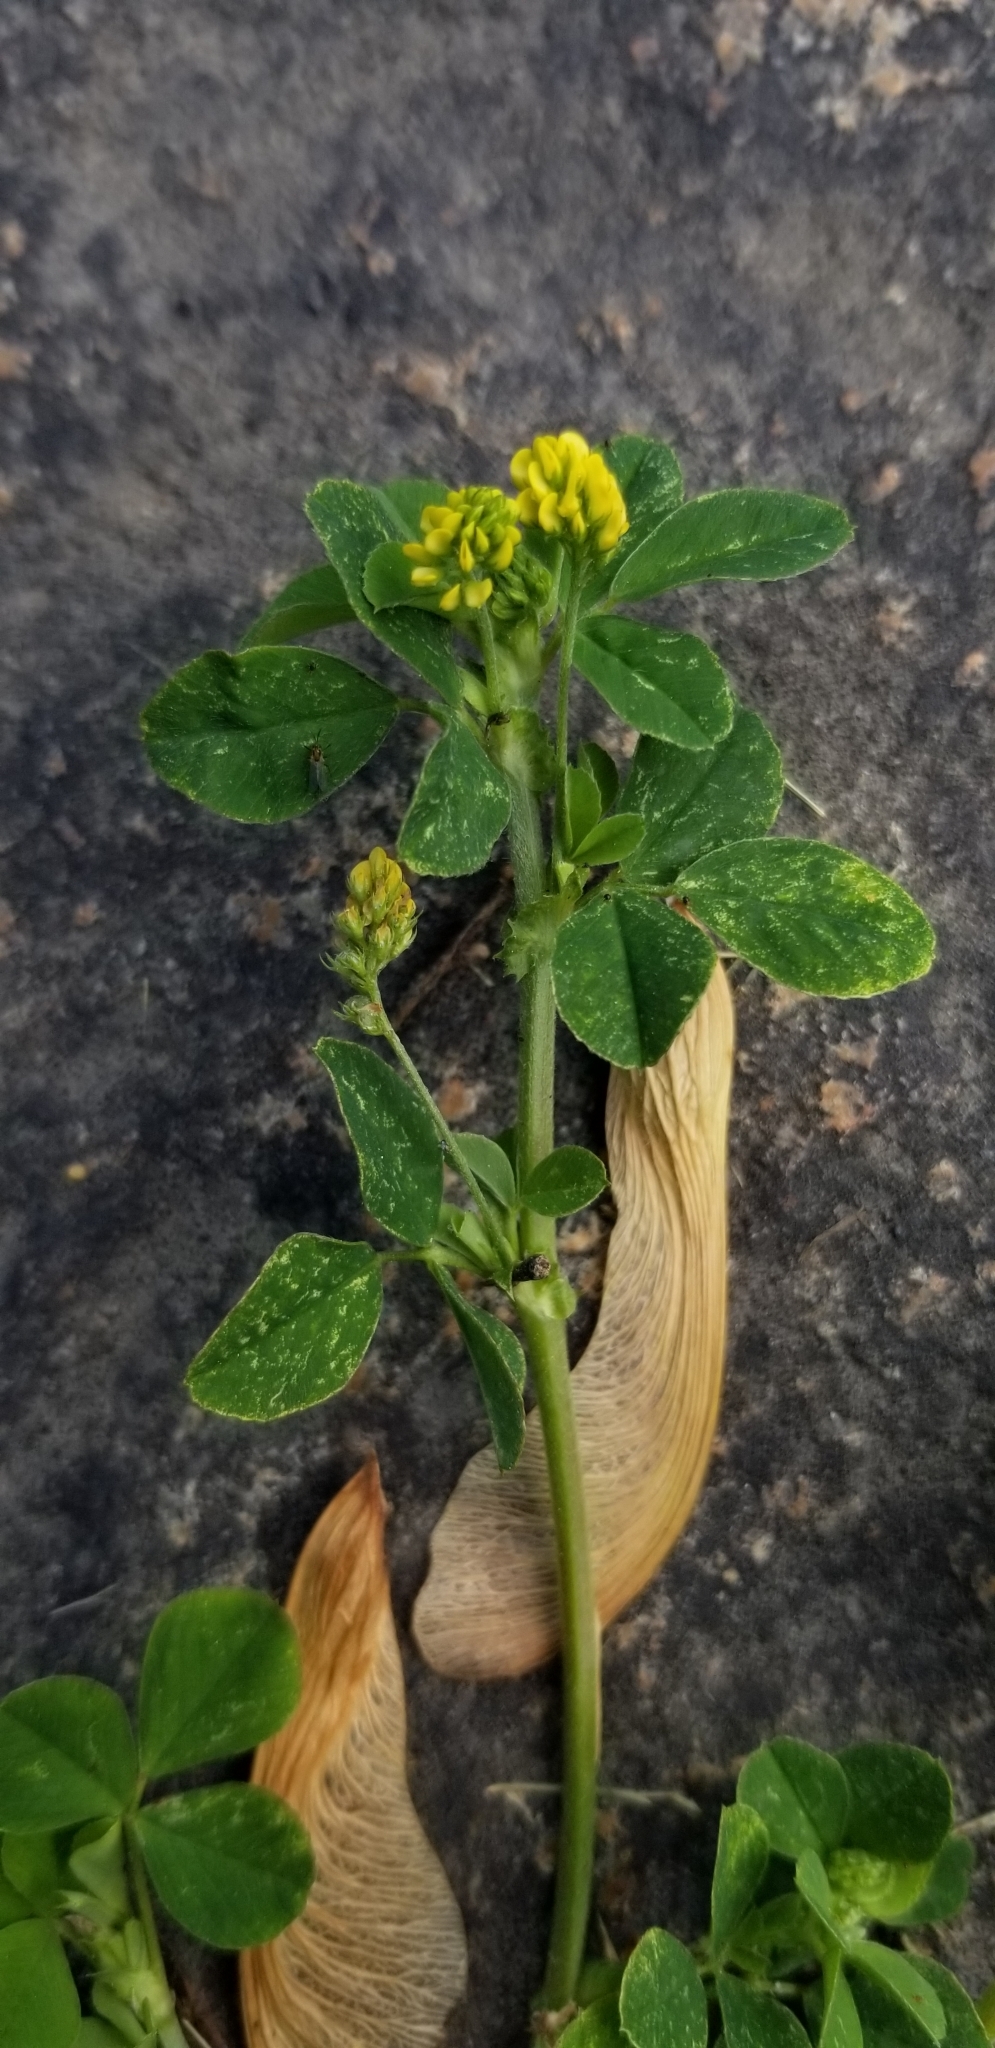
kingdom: Plantae
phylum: Tracheophyta
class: Magnoliopsida
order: Fabales
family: Fabaceae
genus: Medicago
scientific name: Medicago lupulina
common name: Black medick
